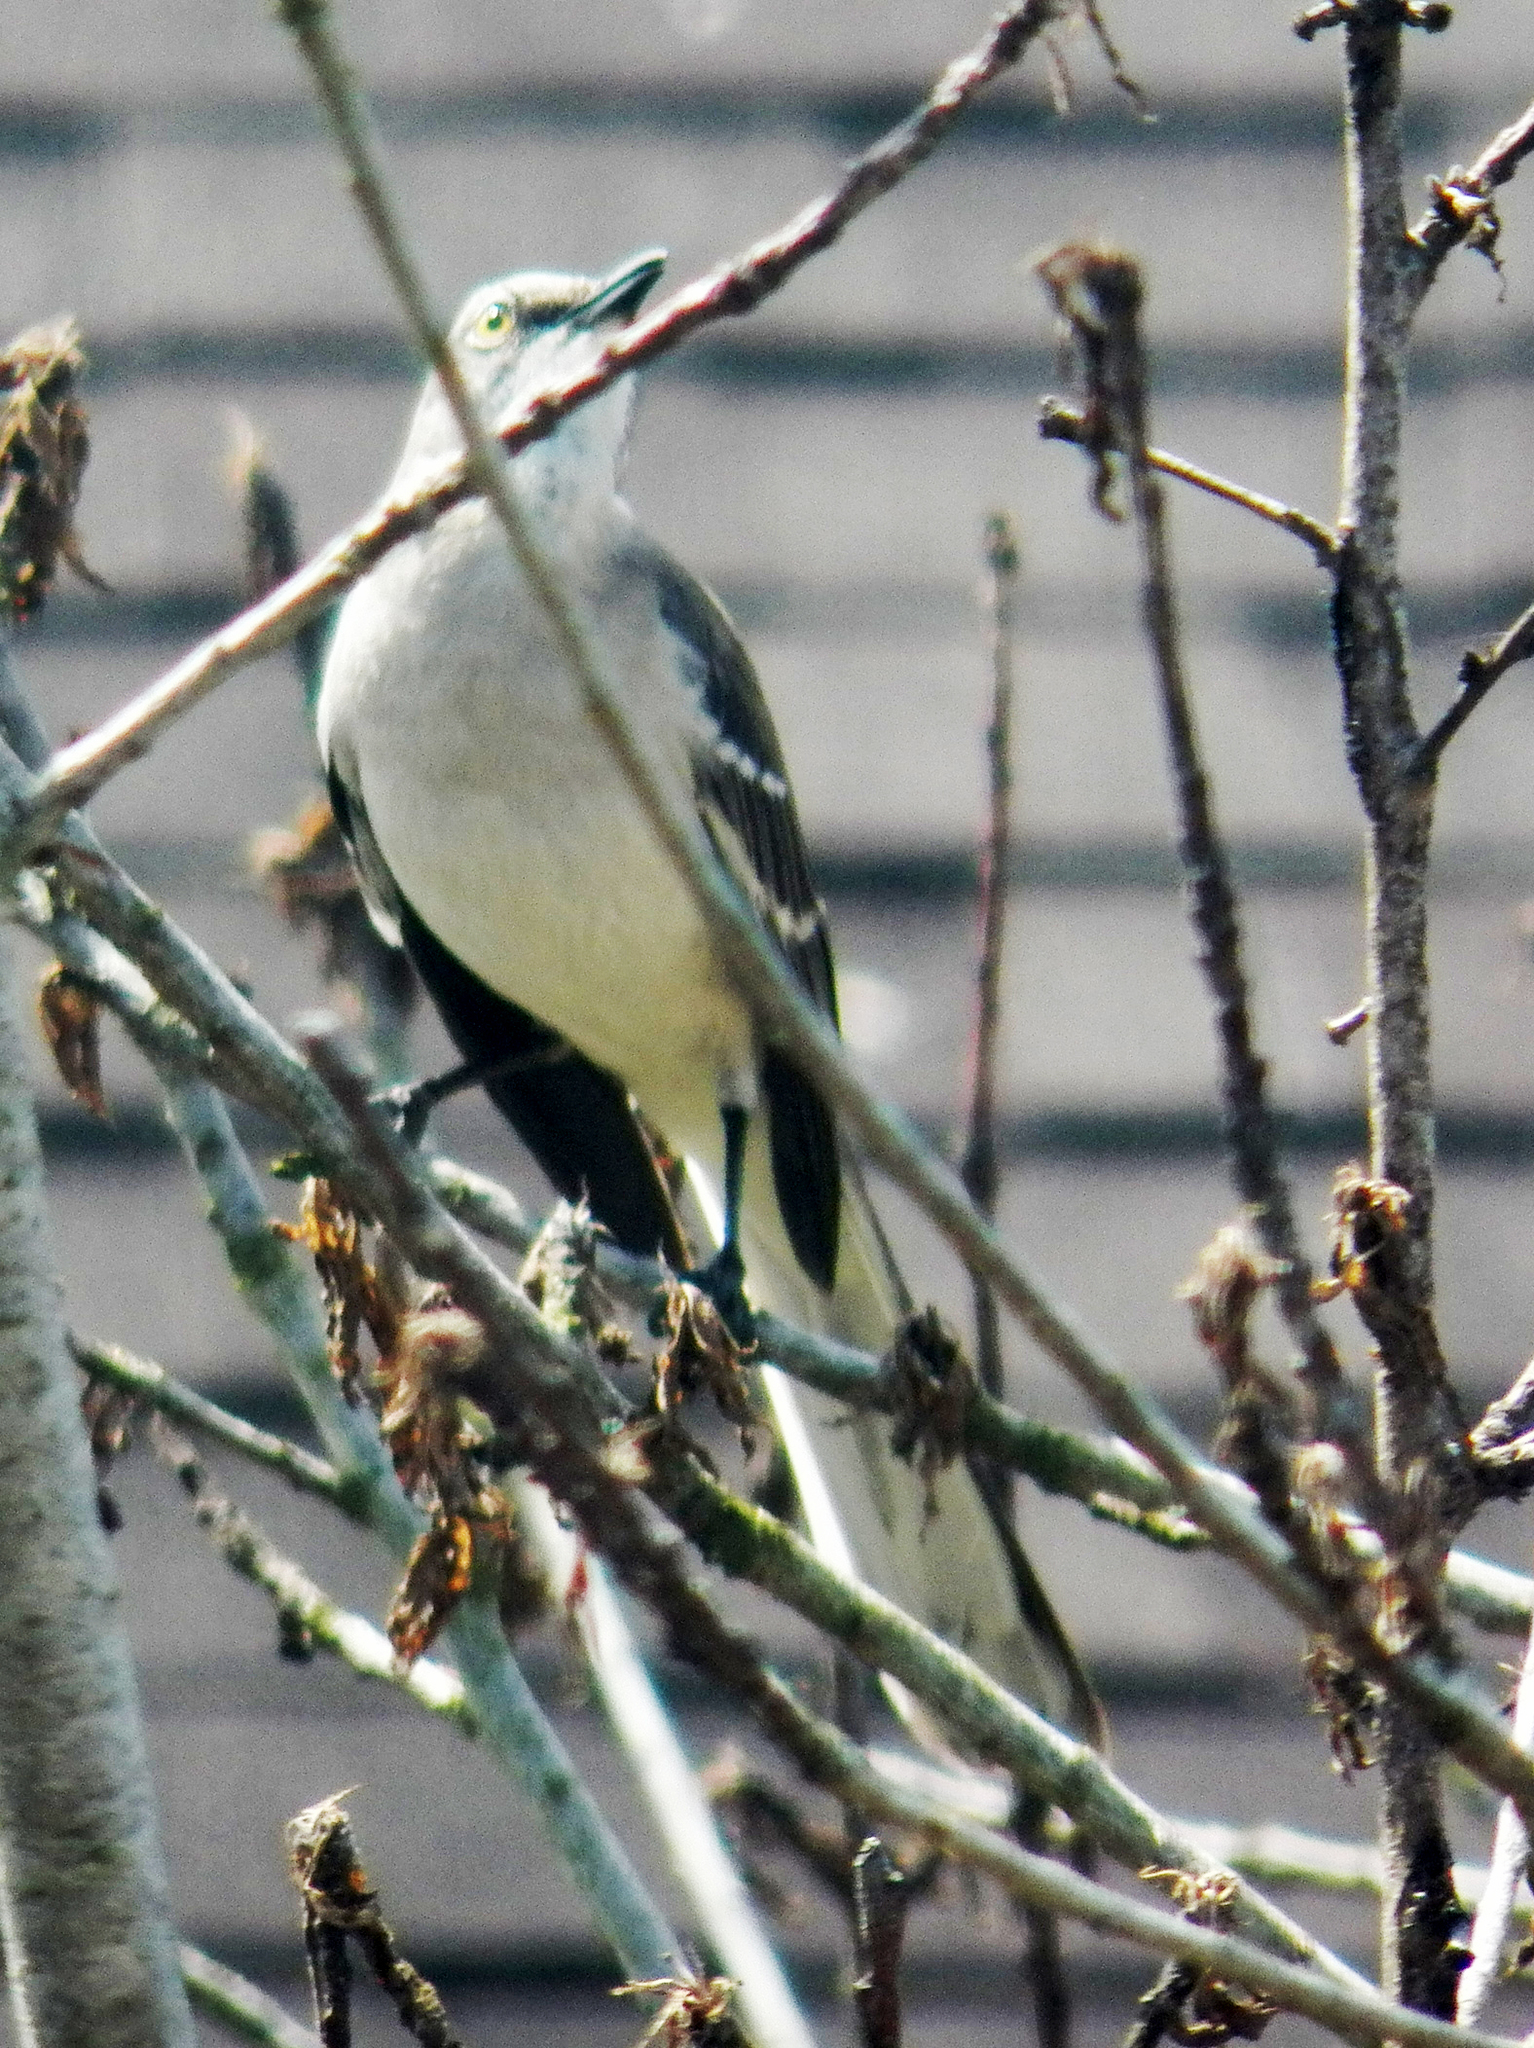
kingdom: Animalia
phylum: Chordata
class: Aves
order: Passeriformes
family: Mimidae
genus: Mimus
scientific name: Mimus polyglottos
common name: Northern mockingbird
